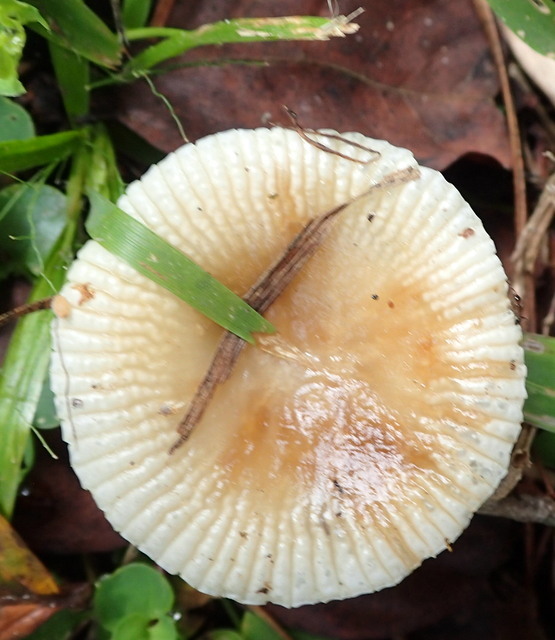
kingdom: Fungi
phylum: Basidiomycota
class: Agaricomycetes
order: Russulales
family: Russulaceae
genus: Russula
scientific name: Russula pectinatoides
